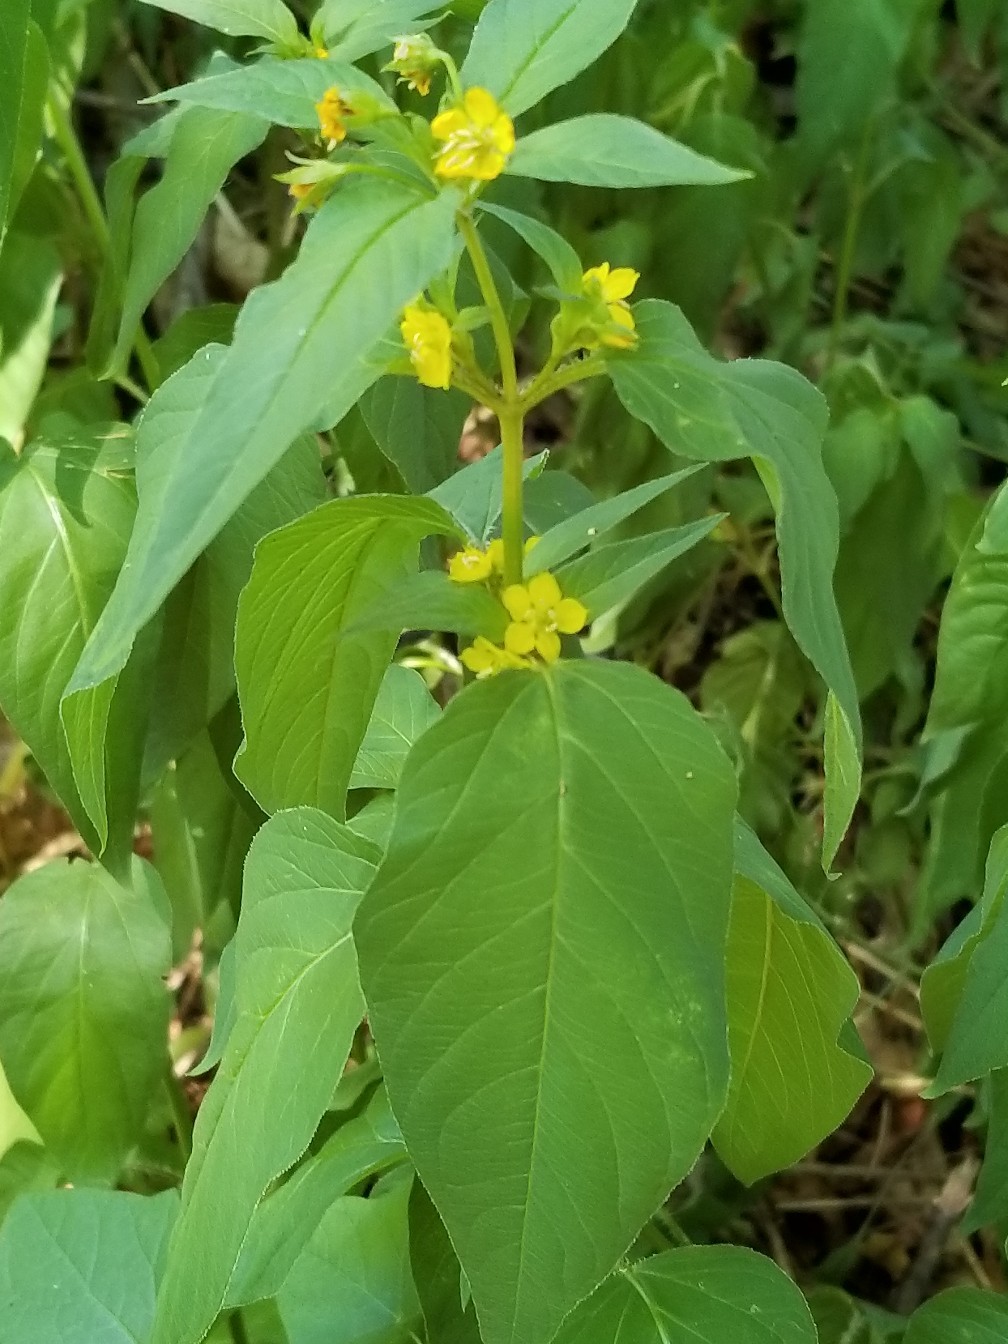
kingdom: Plantae
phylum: Tracheophyta
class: Magnoliopsida
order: Ericales
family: Primulaceae
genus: Lysimachia
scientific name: Lysimachia ciliata
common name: Fringed loosestrife
